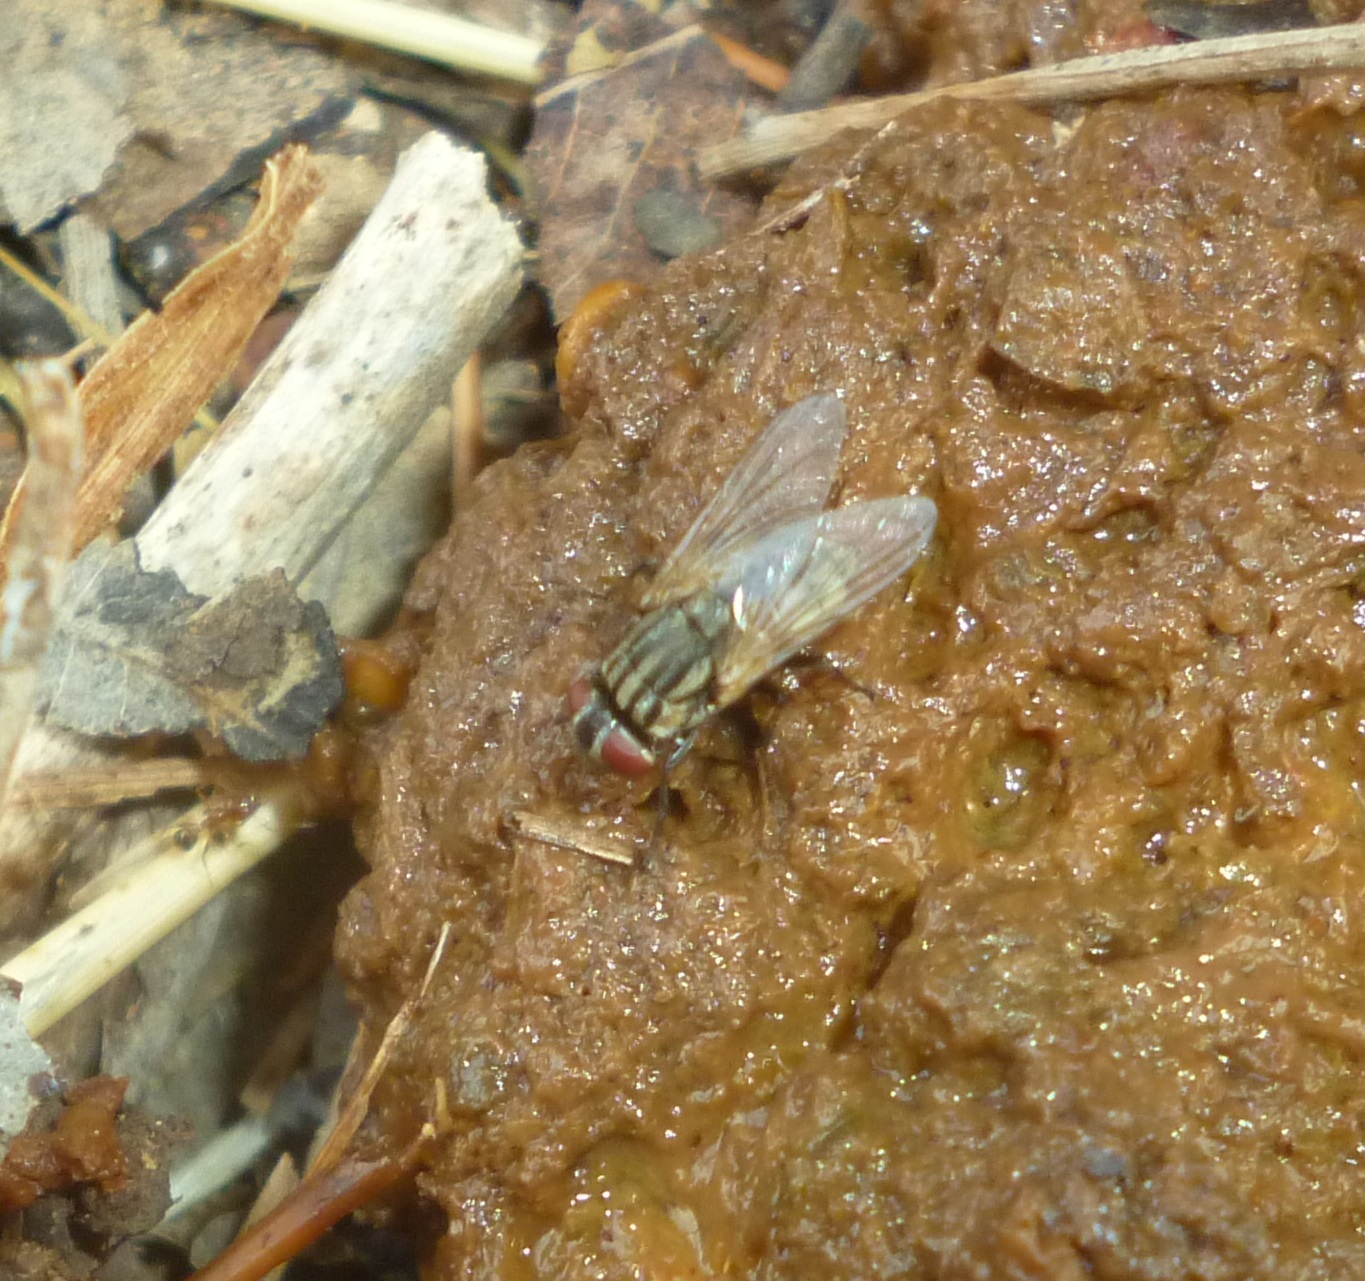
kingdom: Animalia
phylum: Arthropoda
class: Insecta
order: Diptera
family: Muscidae
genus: Musca
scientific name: Musca domestica
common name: House fly
